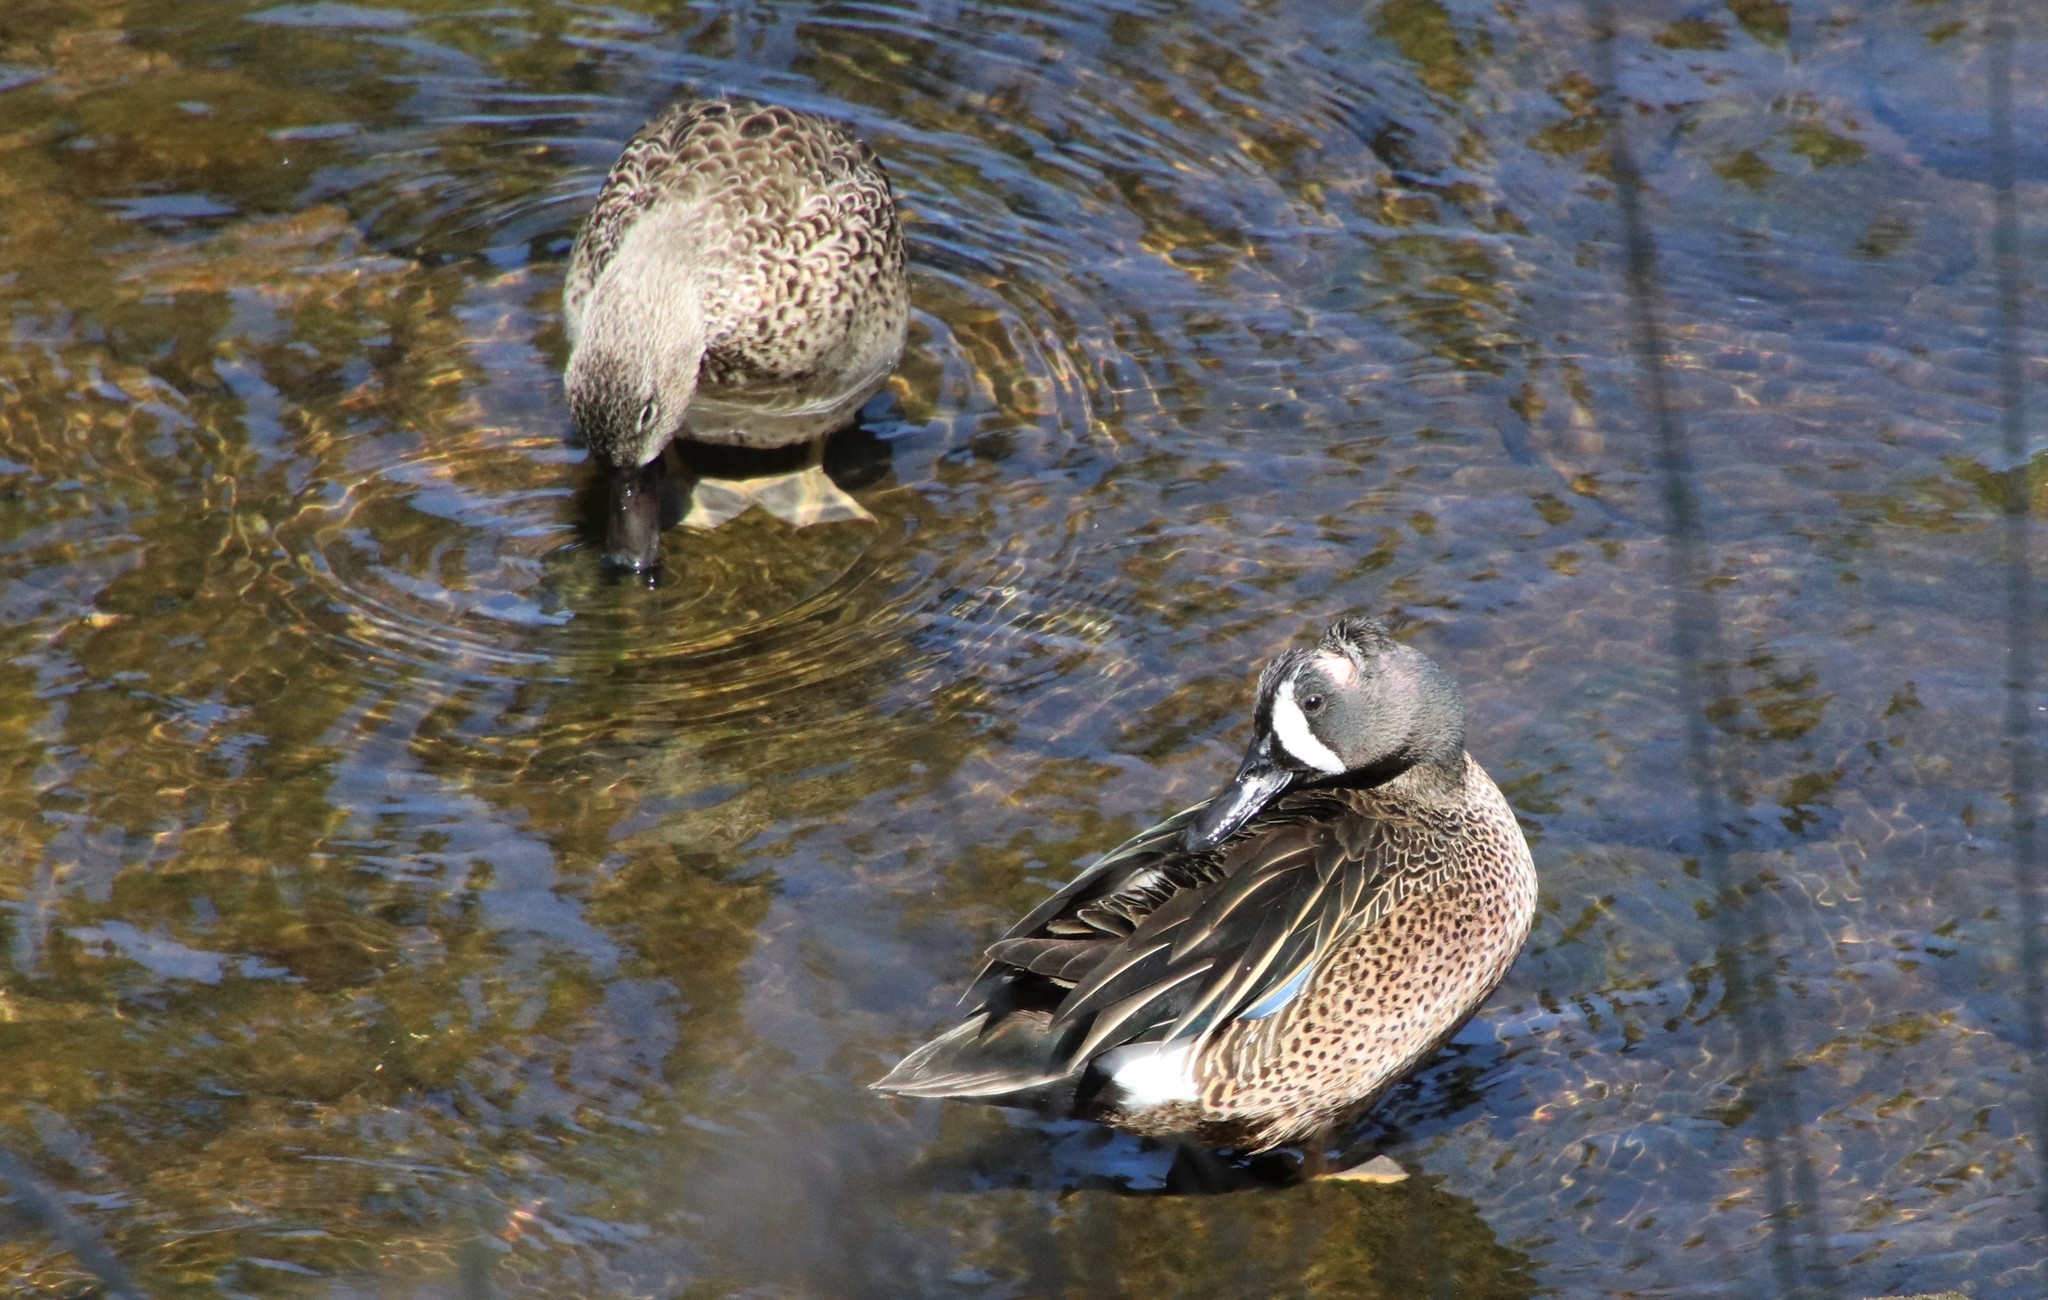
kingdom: Animalia
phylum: Chordata
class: Aves
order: Anseriformes
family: Anatidae
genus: Spatula
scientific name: Spatula discors
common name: Blue-winged teal
